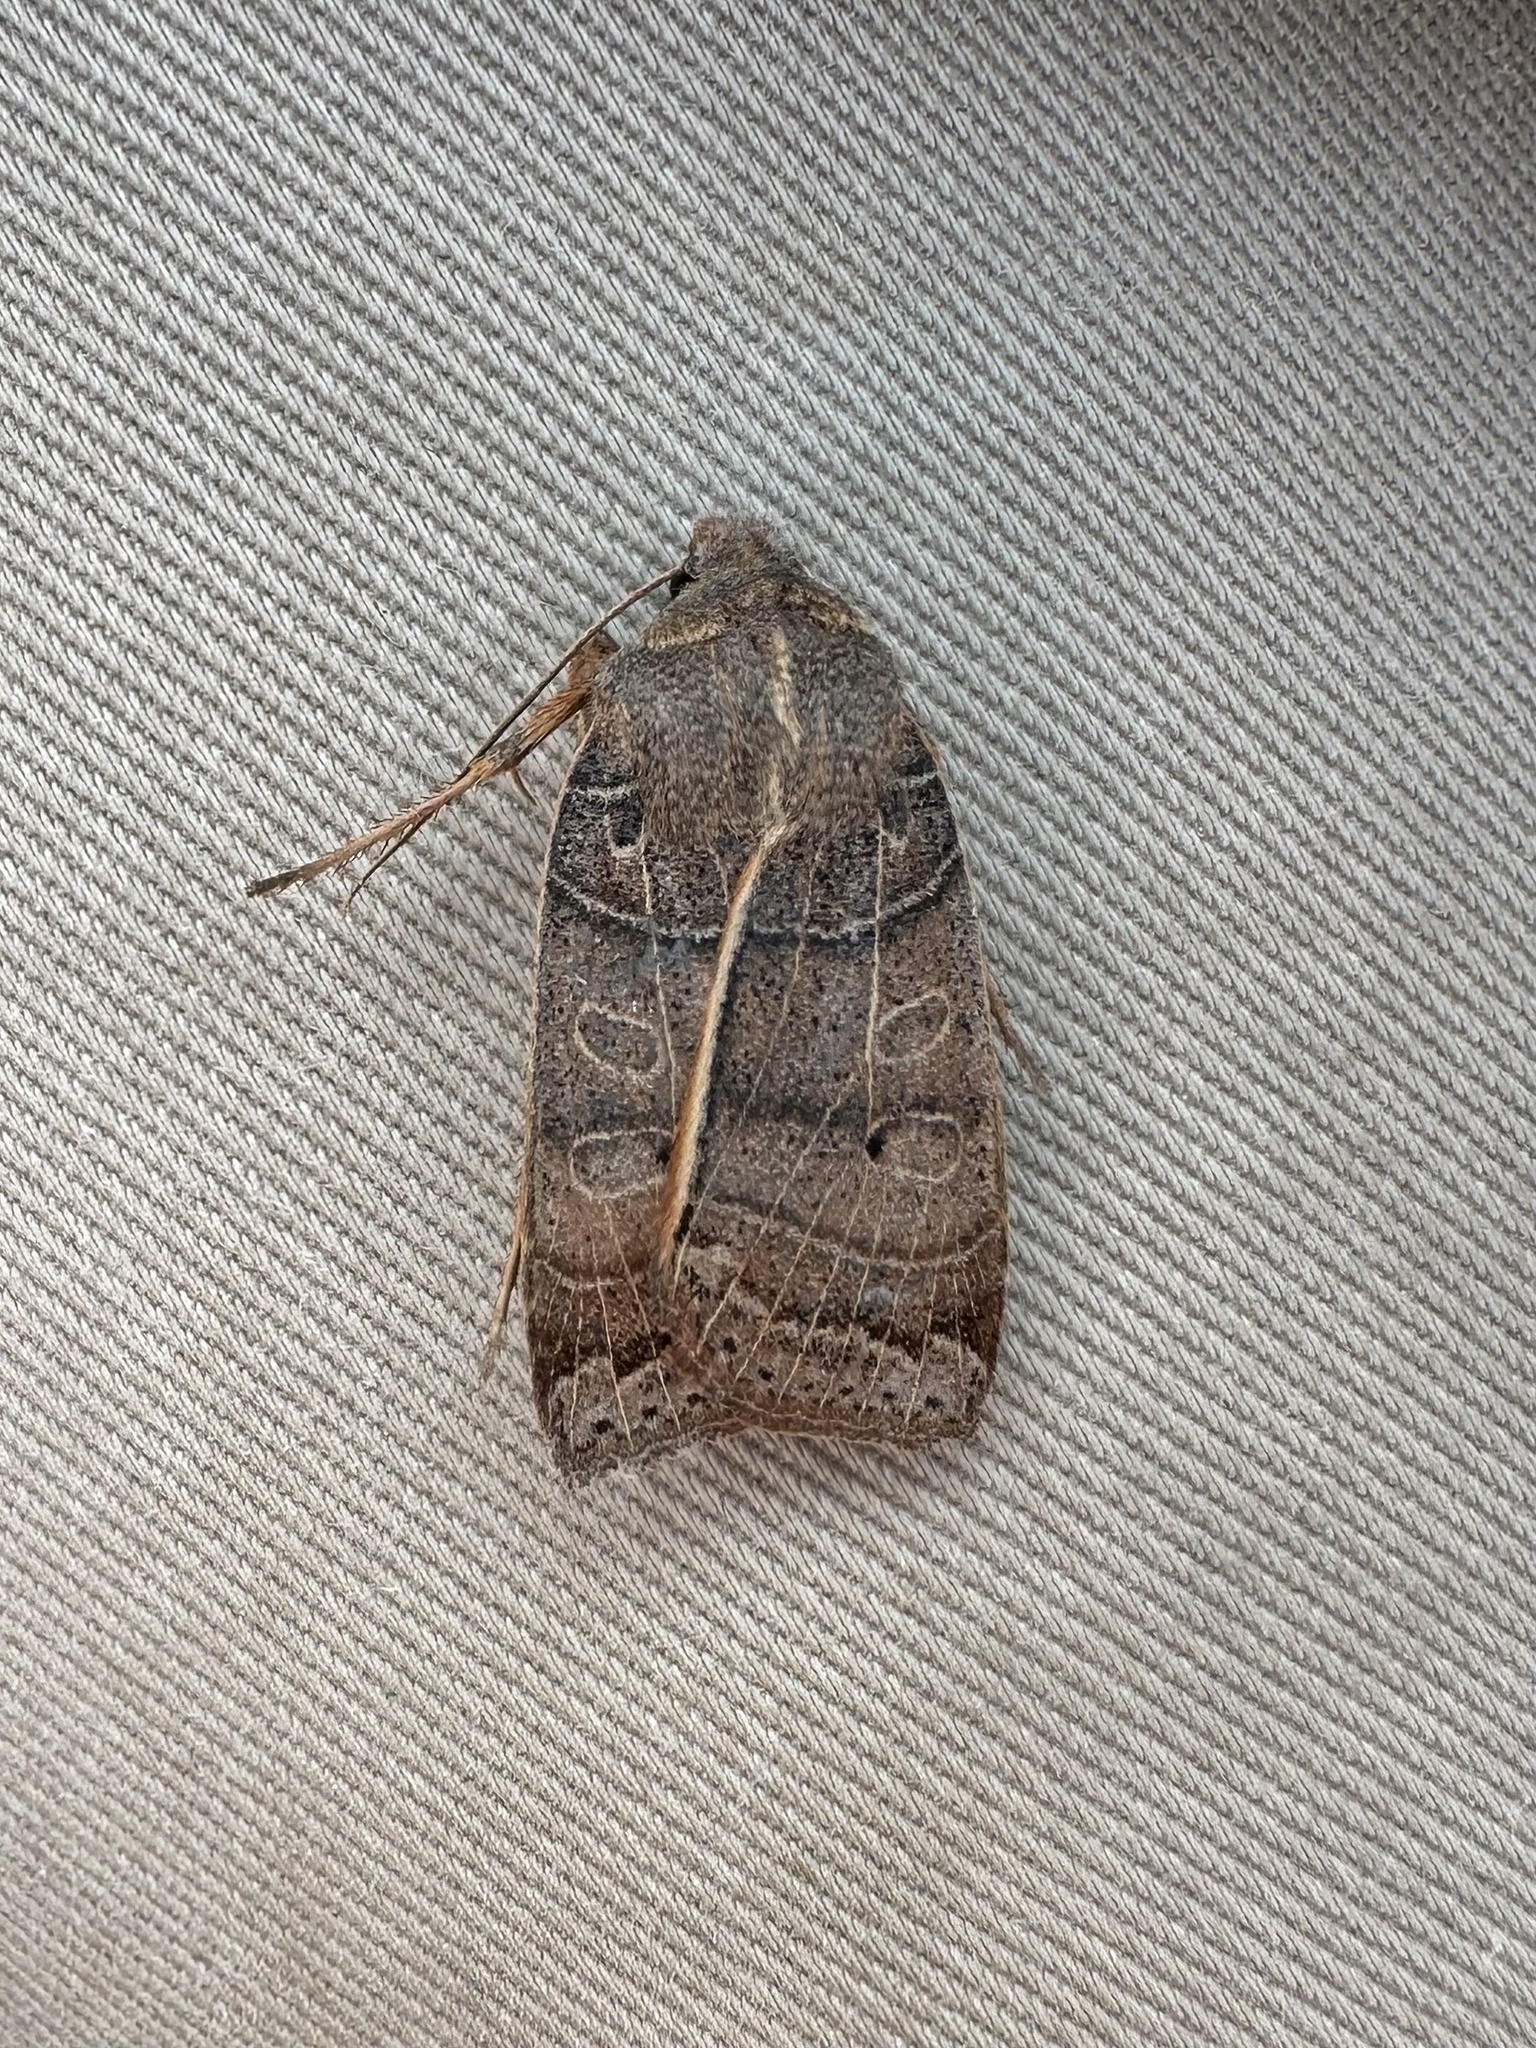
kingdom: Animalia
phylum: Arthropoda
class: Insecta
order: Lepidoptera
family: Noctuidae
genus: Chaetaglaea
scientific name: Chaetaglaea sericea
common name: Silky sallow
